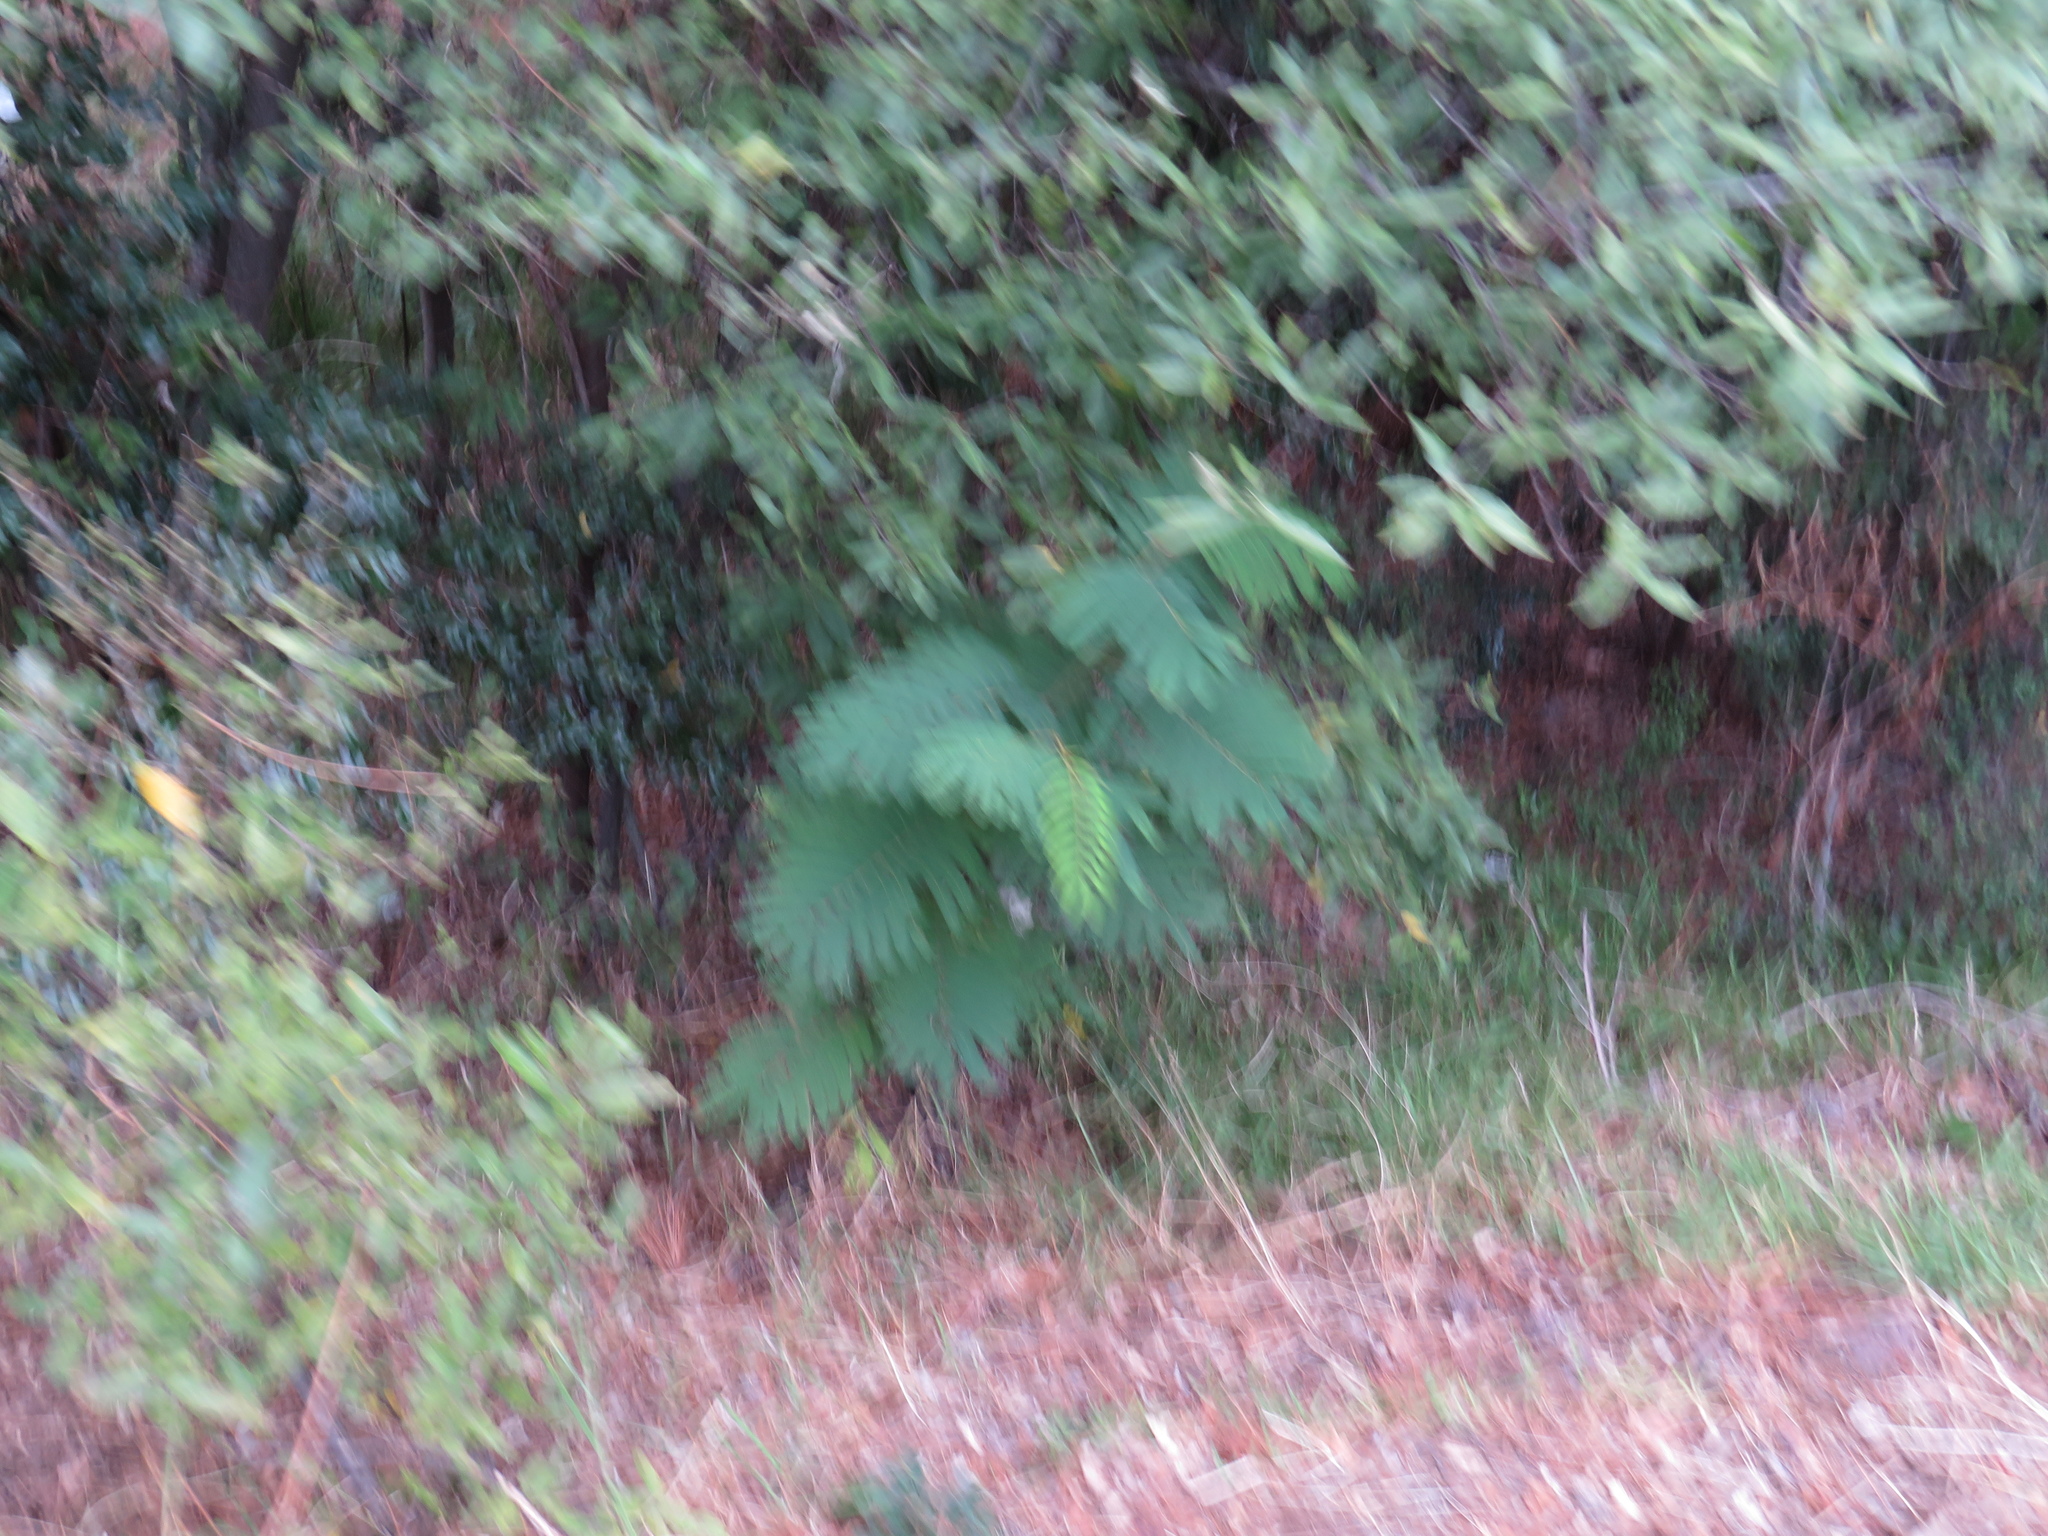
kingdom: Plantae
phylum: Tracheophyta
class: Magnoliopsida
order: Fabales
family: Fabaceae
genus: Paraserianthes
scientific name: Paraserianthes lophantha
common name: Plume albizia
